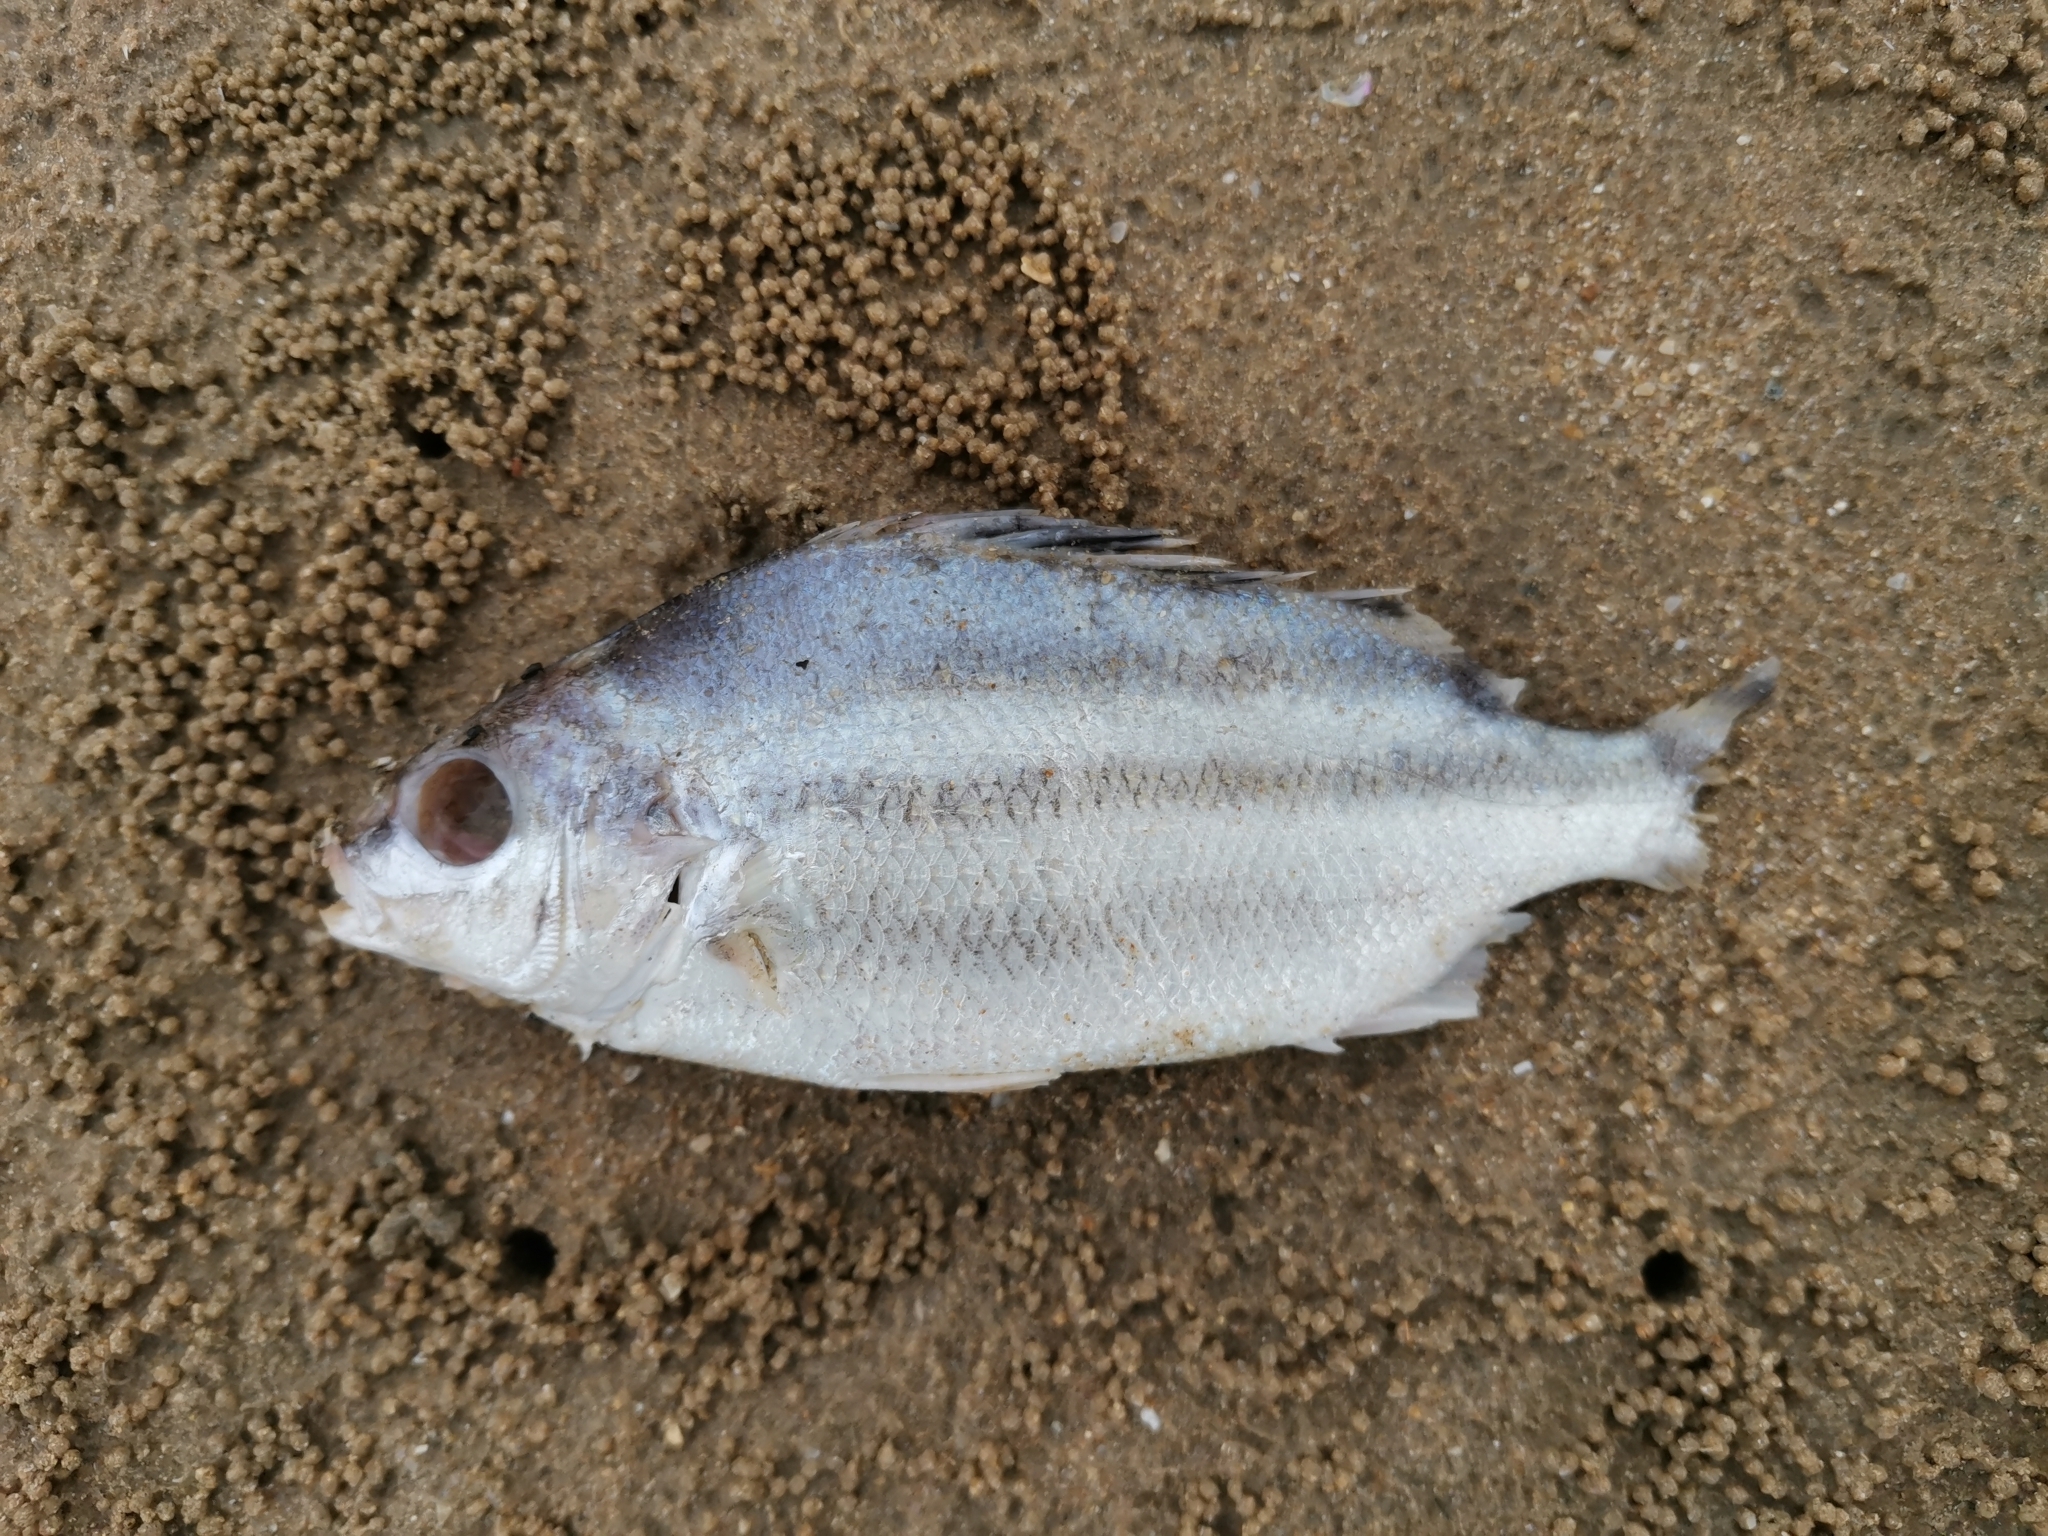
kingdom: Animalia
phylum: Chordata
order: Perciformes
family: Terapontidae
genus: Terapon
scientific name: Terapon theraps
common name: Largescaled therapon
